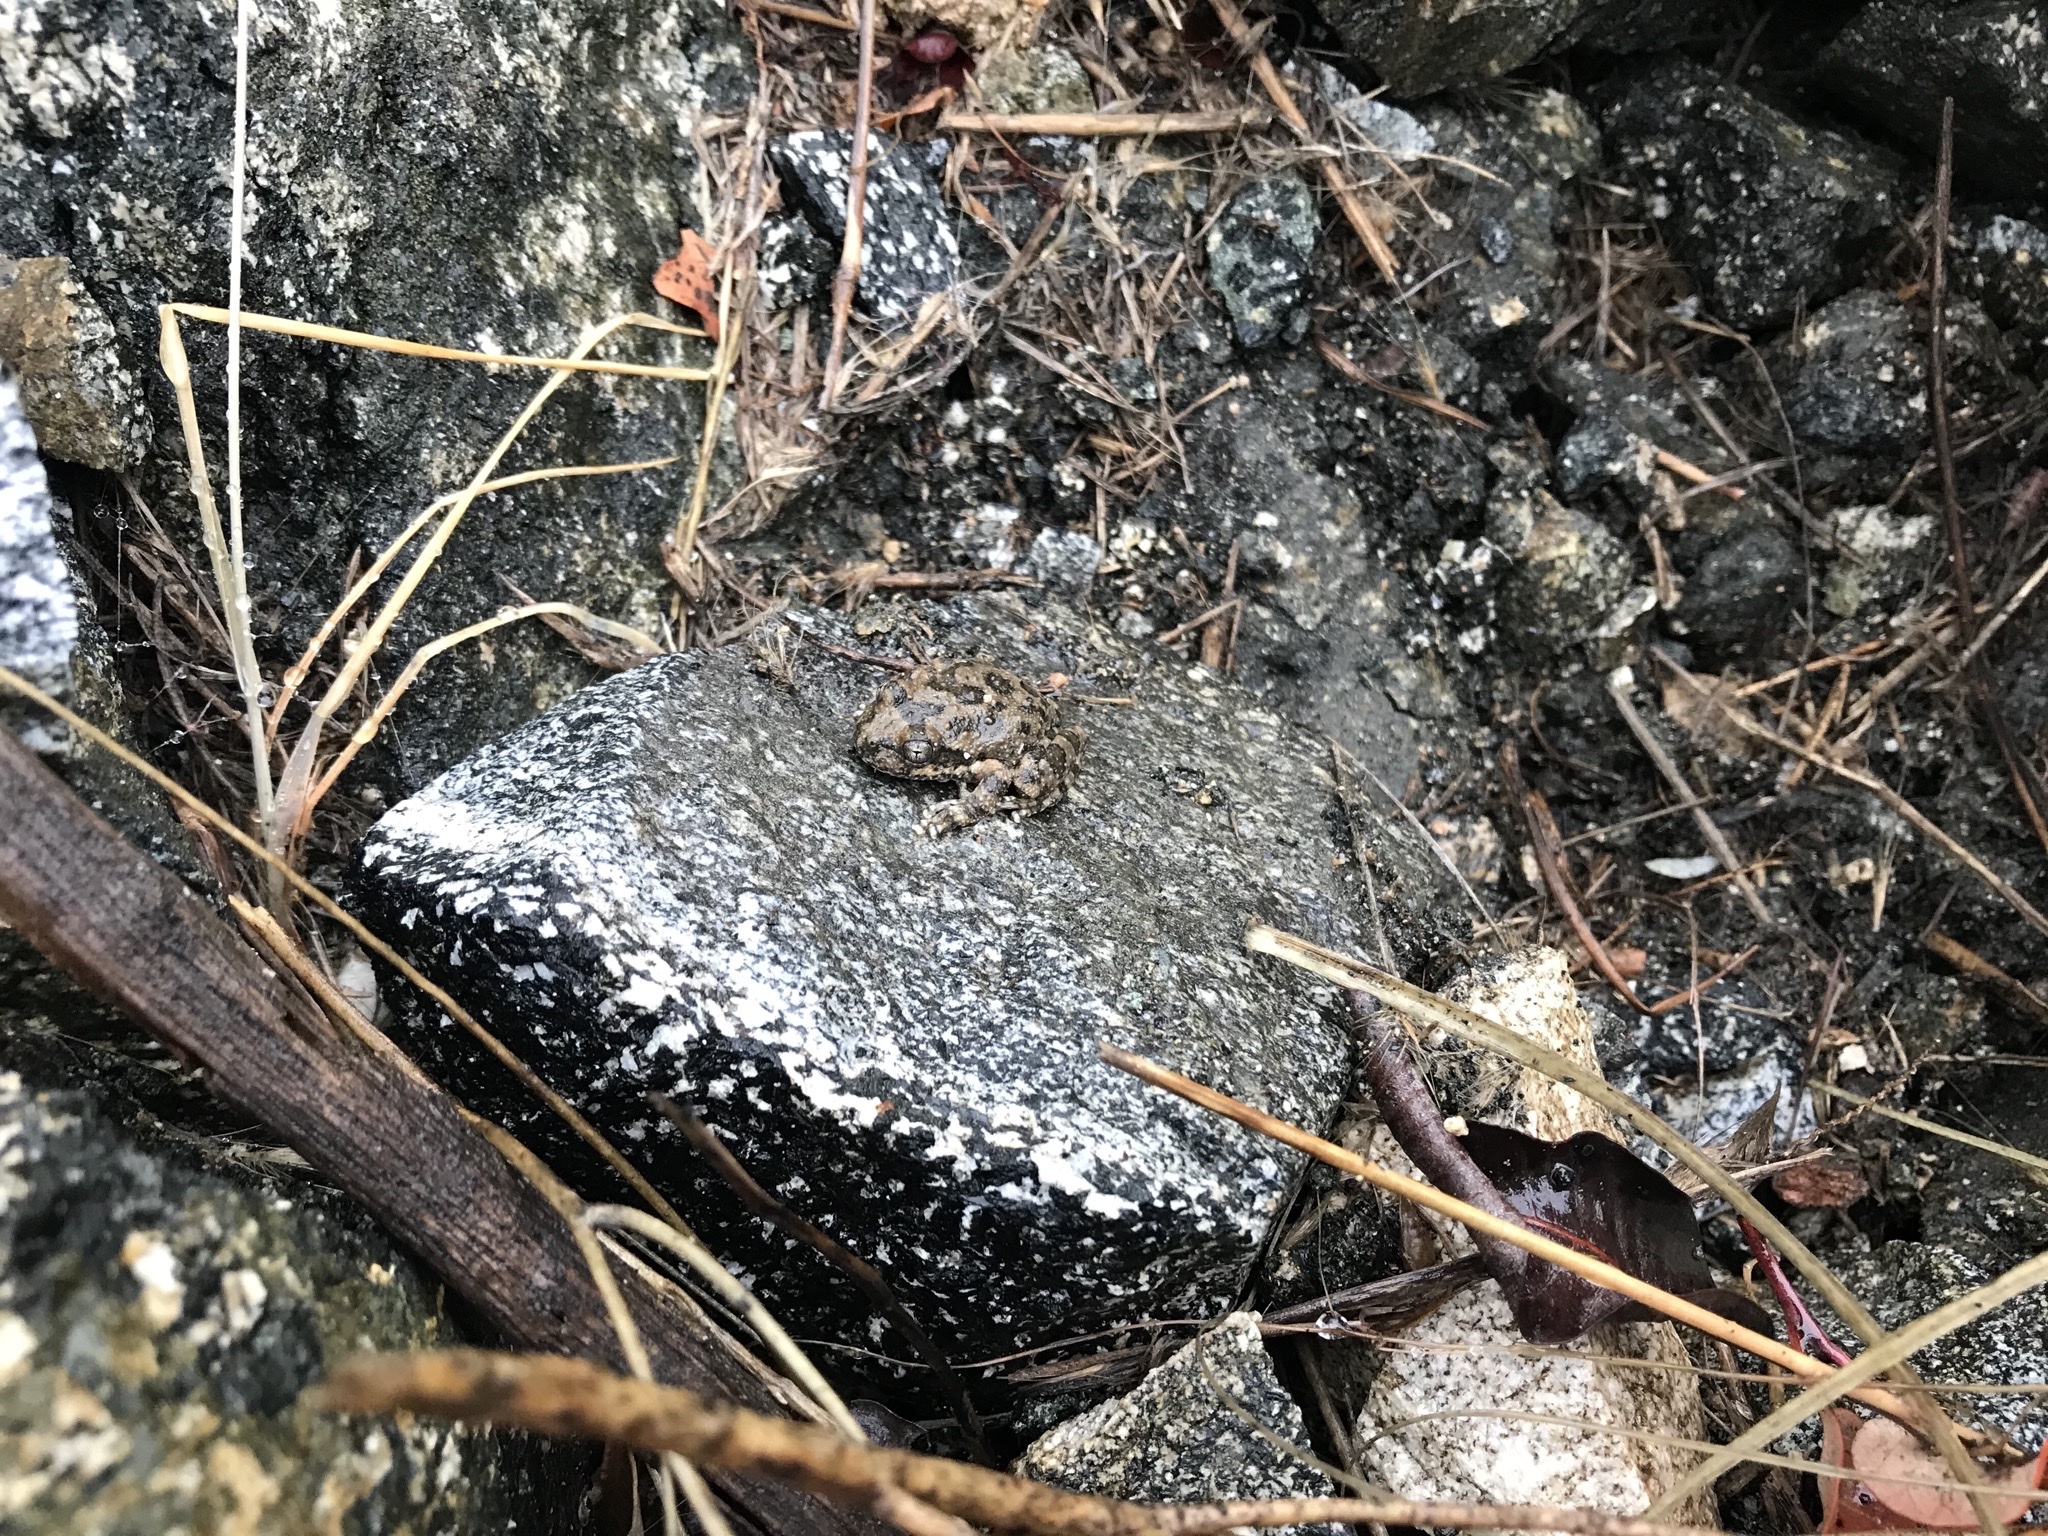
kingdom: Animalia
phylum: Chordata
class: Amphibia
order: Anura
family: Hylidae
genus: Pseudacris
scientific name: Pseudacris cadaverina
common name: California chorus frog
